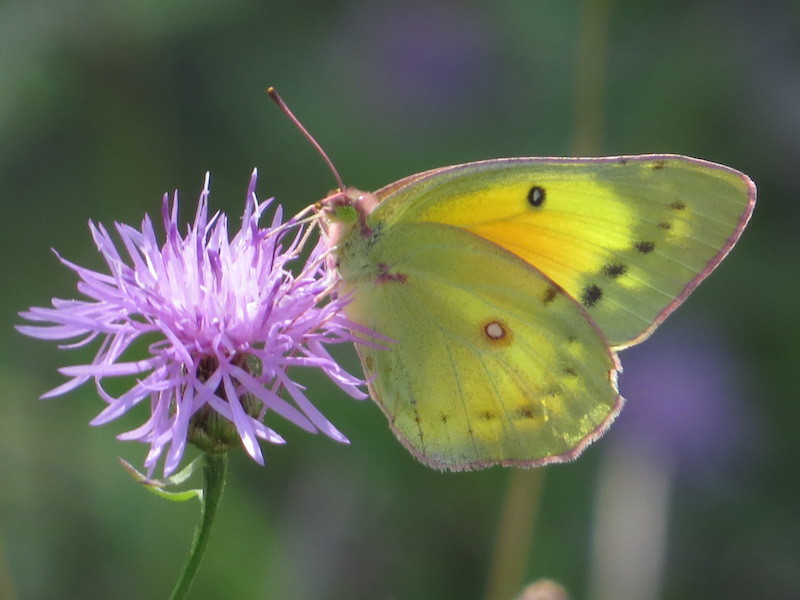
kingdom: Animalia
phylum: Arthropoda
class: Insecta
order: Lepidoptera
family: Pieridae
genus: Colias
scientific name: Colias eurytheme
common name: Alfalfa butterfly
